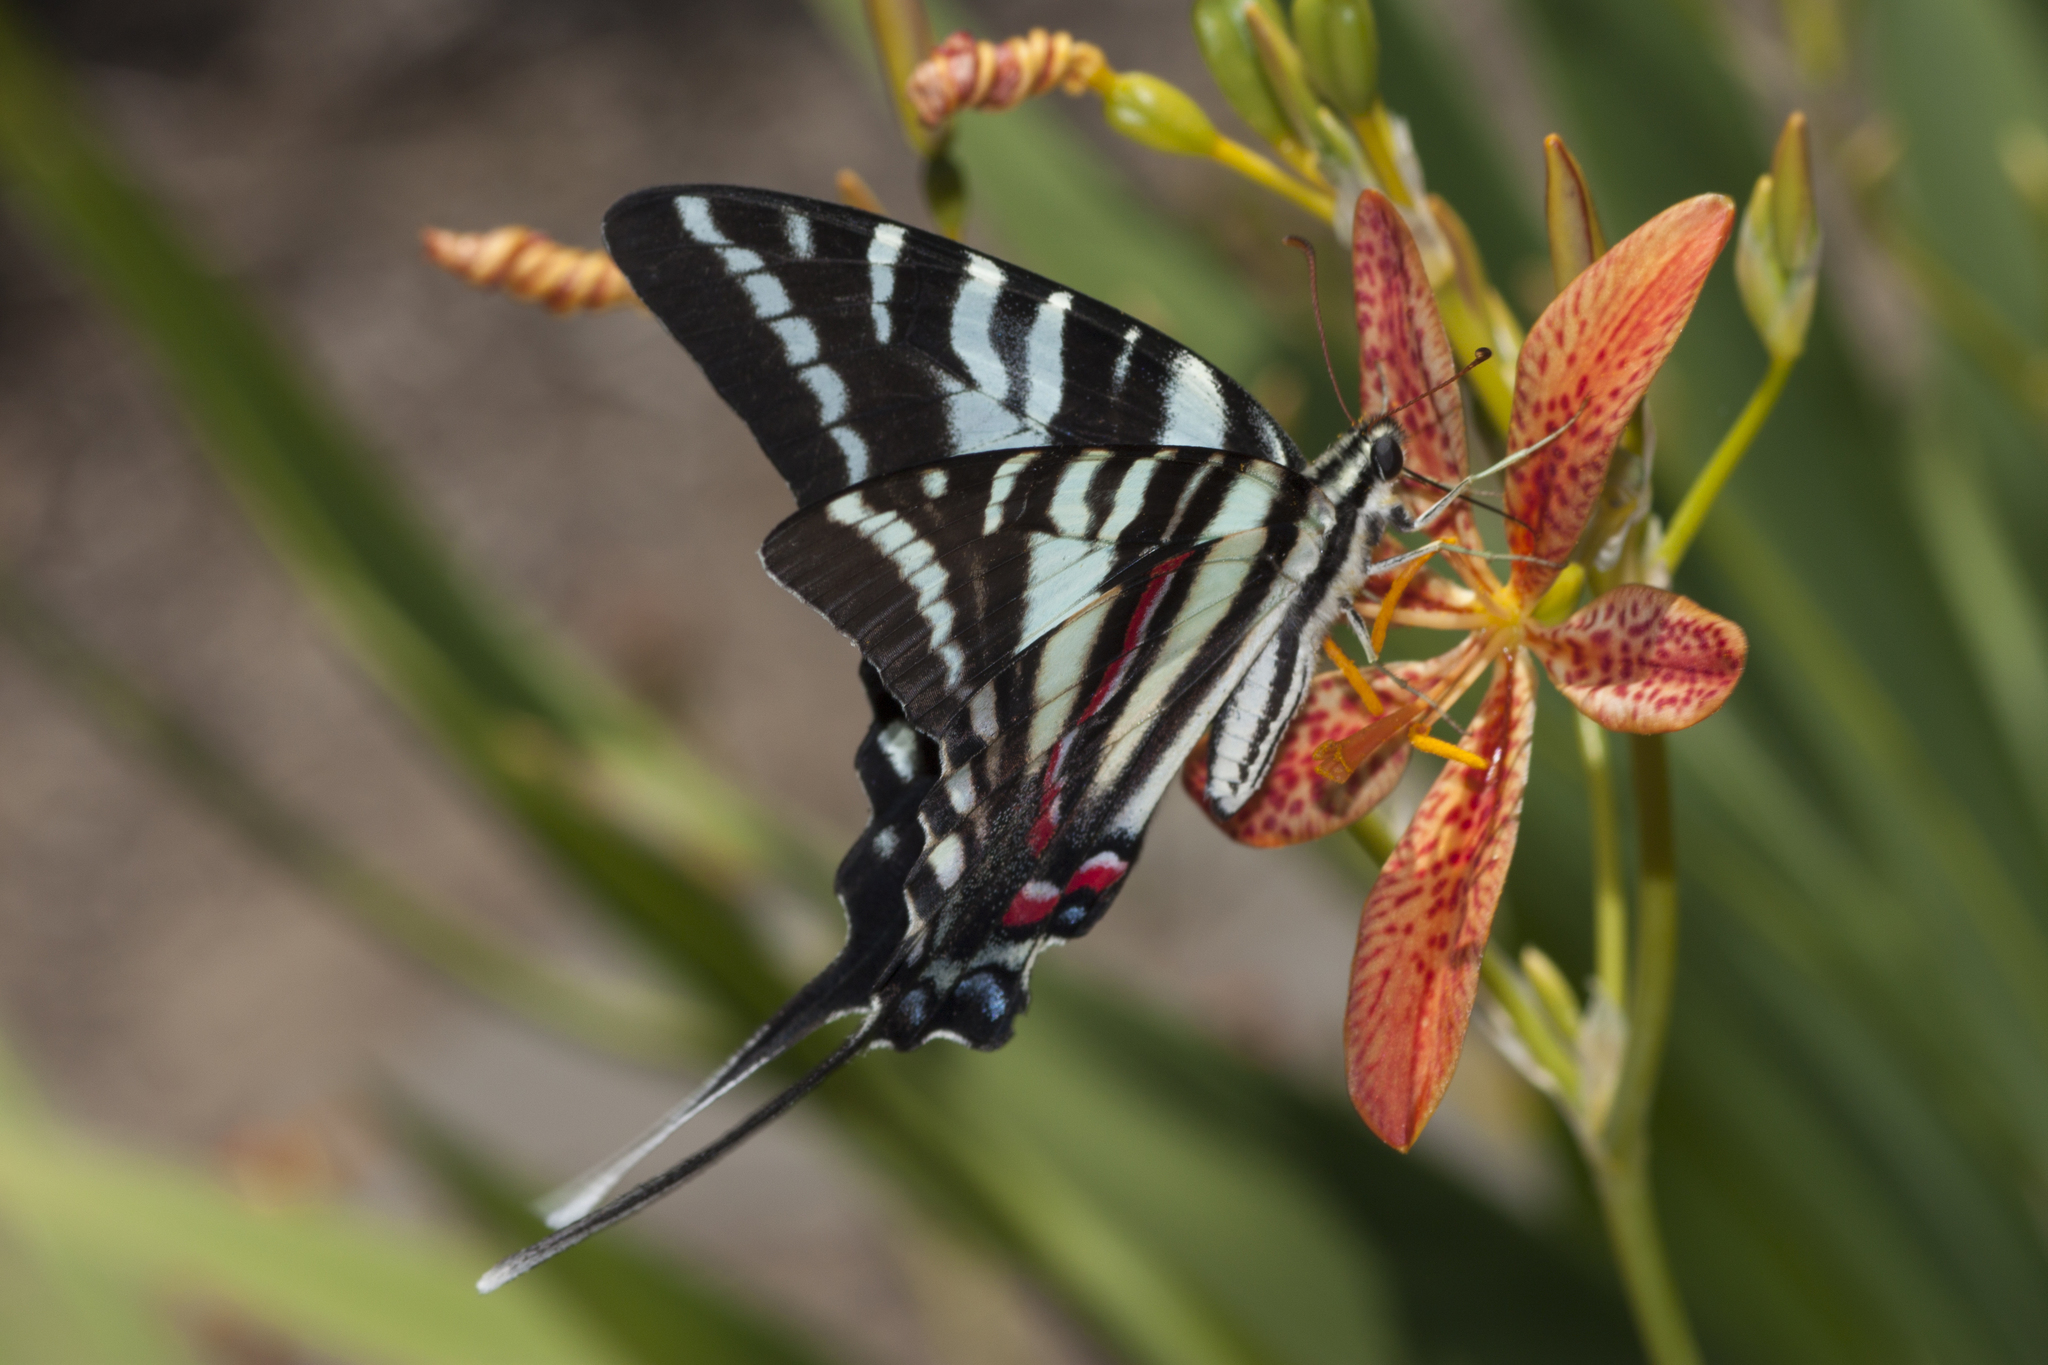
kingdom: Animalia
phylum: Arthropoda
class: Insecta
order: Lepidoptera
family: Papilionidae
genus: Protographium
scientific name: Protographium marcellus
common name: Zebra swallowtail
